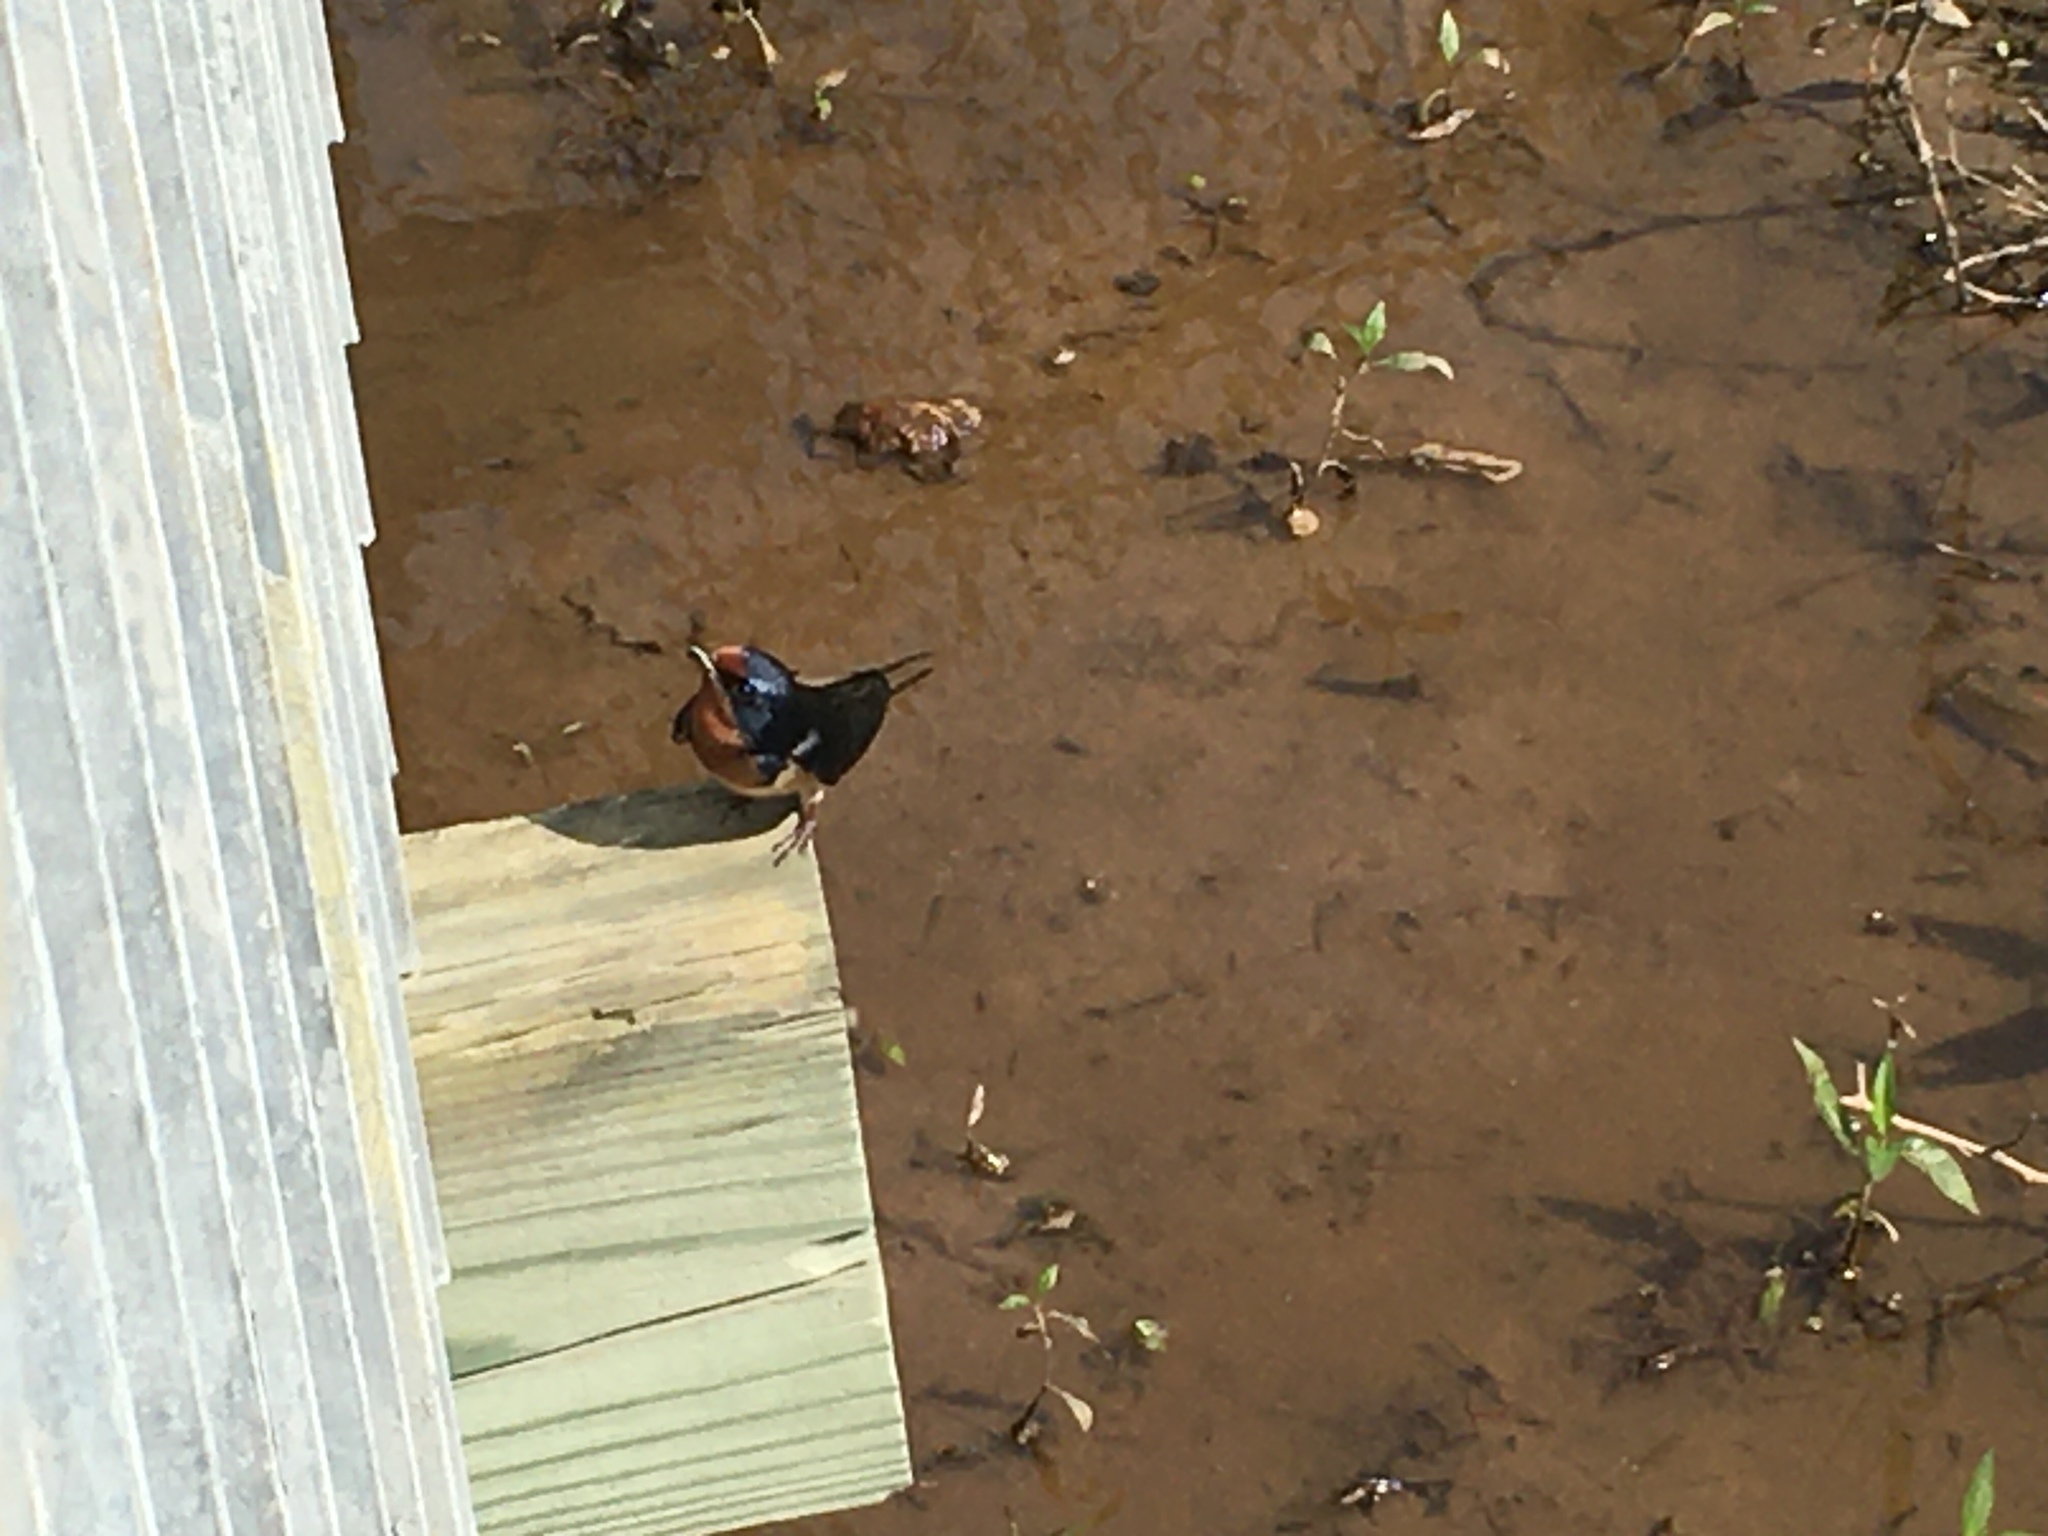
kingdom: Animalia
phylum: Chordata
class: Aves
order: Passeriformes
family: Hirundinidae
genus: Hirundo
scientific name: Hirundo rustica
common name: Barn swallow
